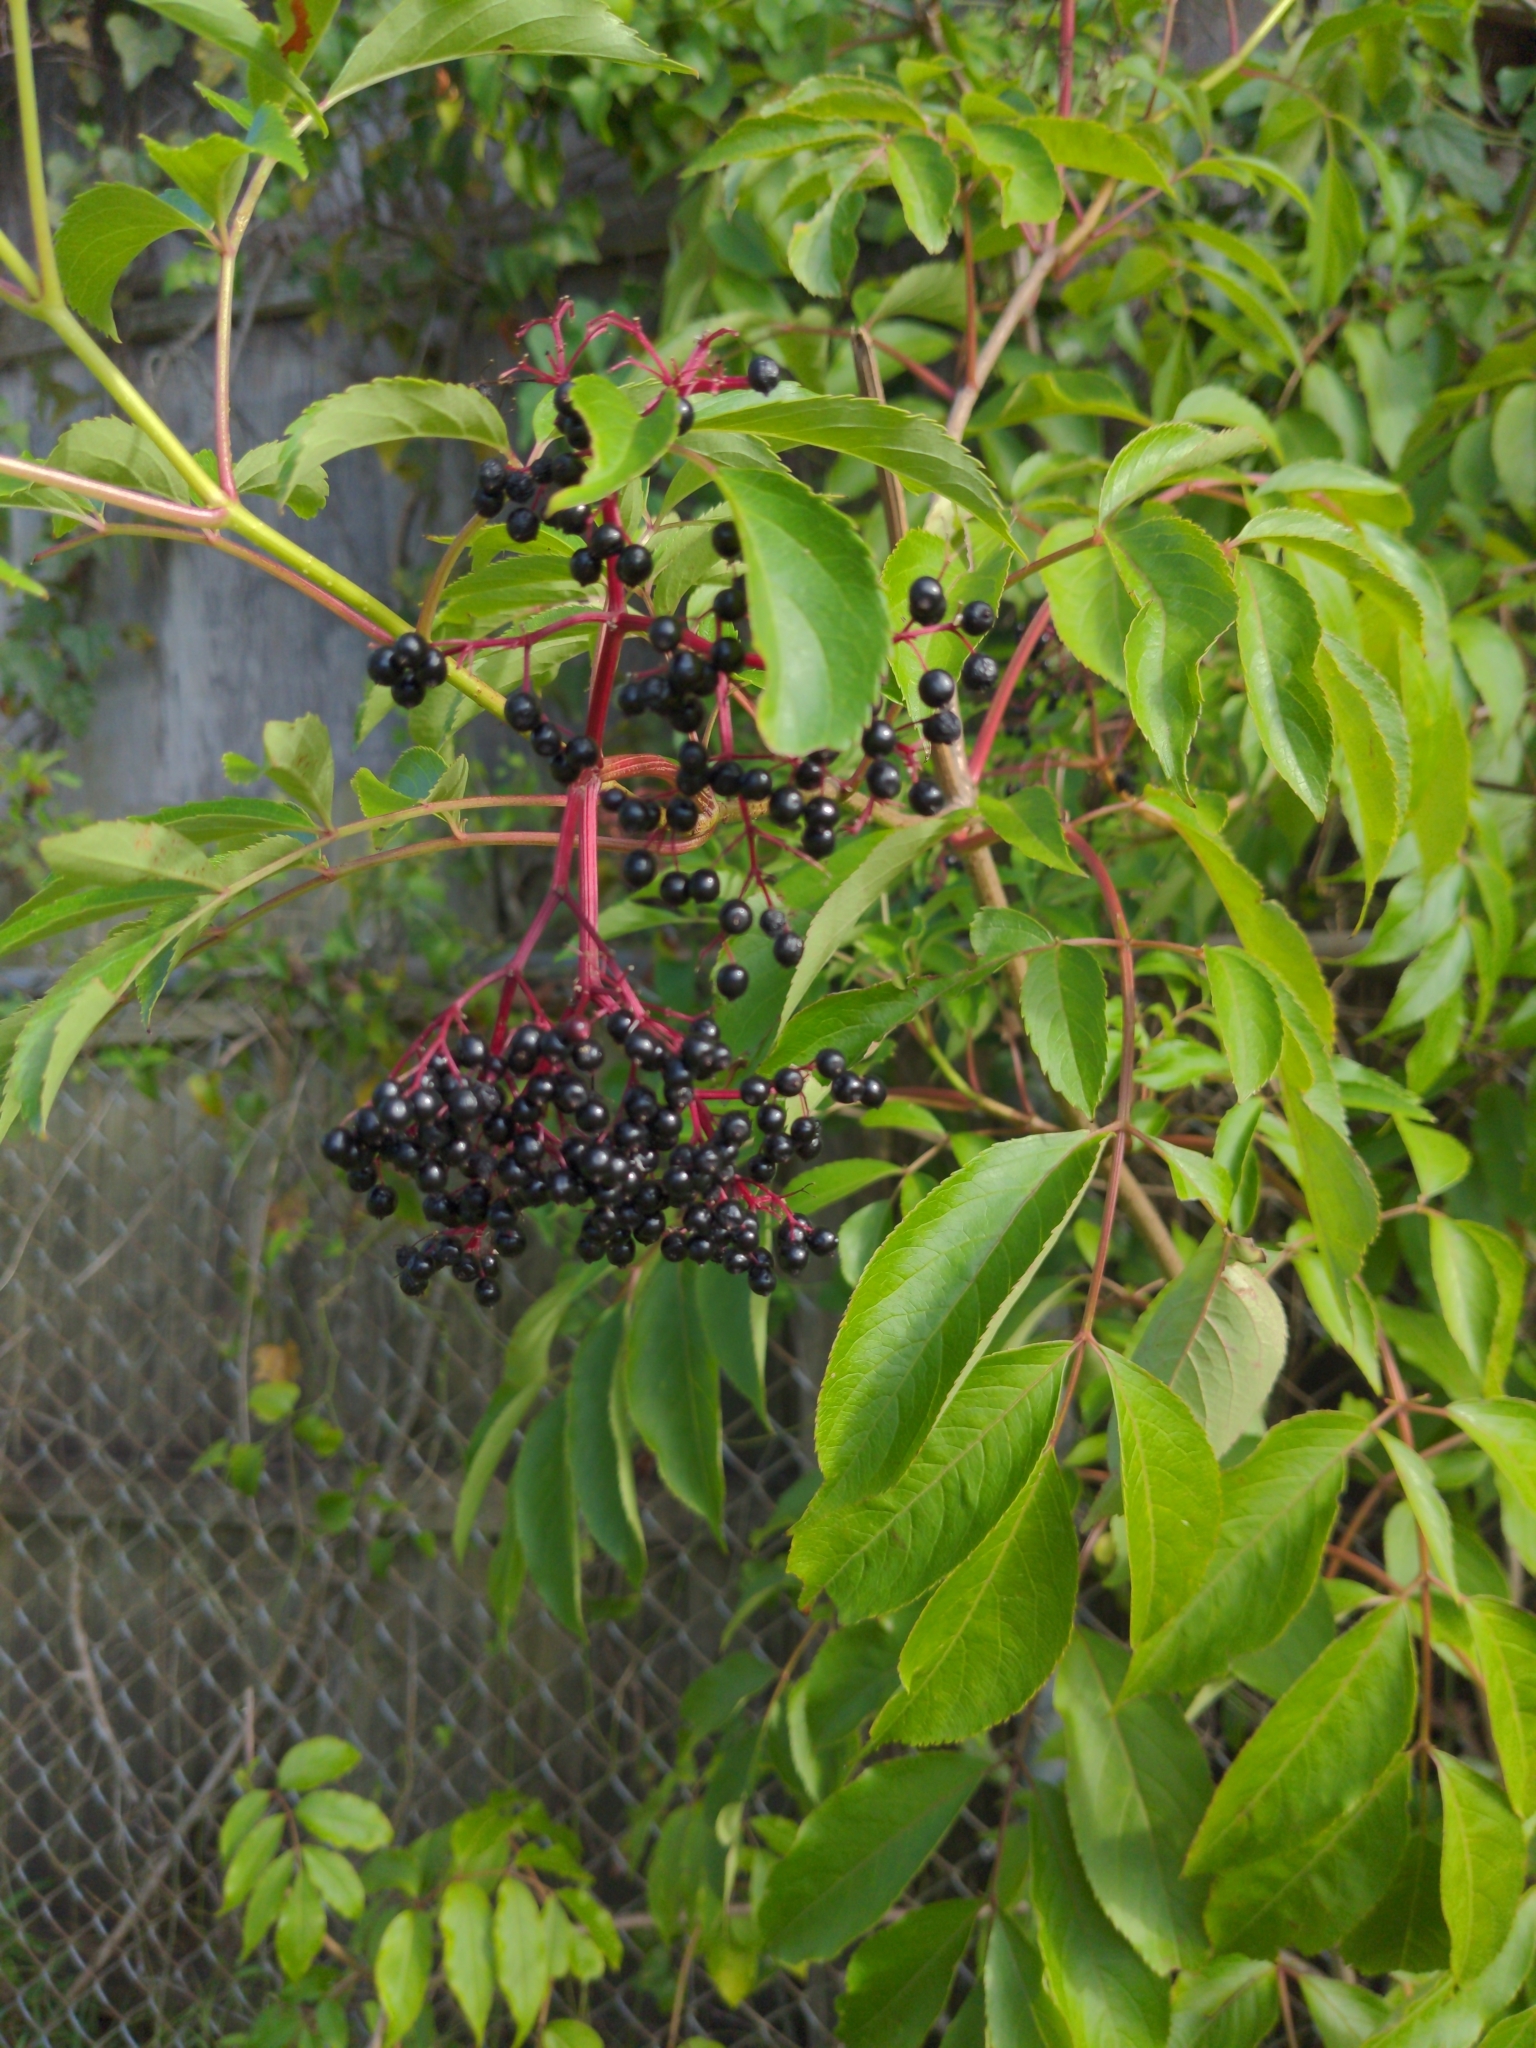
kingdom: Plantae
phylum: Tracheophyta
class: Magnoliopsida
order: Dipsacales
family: Viburnaceae
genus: Sambucus
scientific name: Sambucus canadensis
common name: American elder
